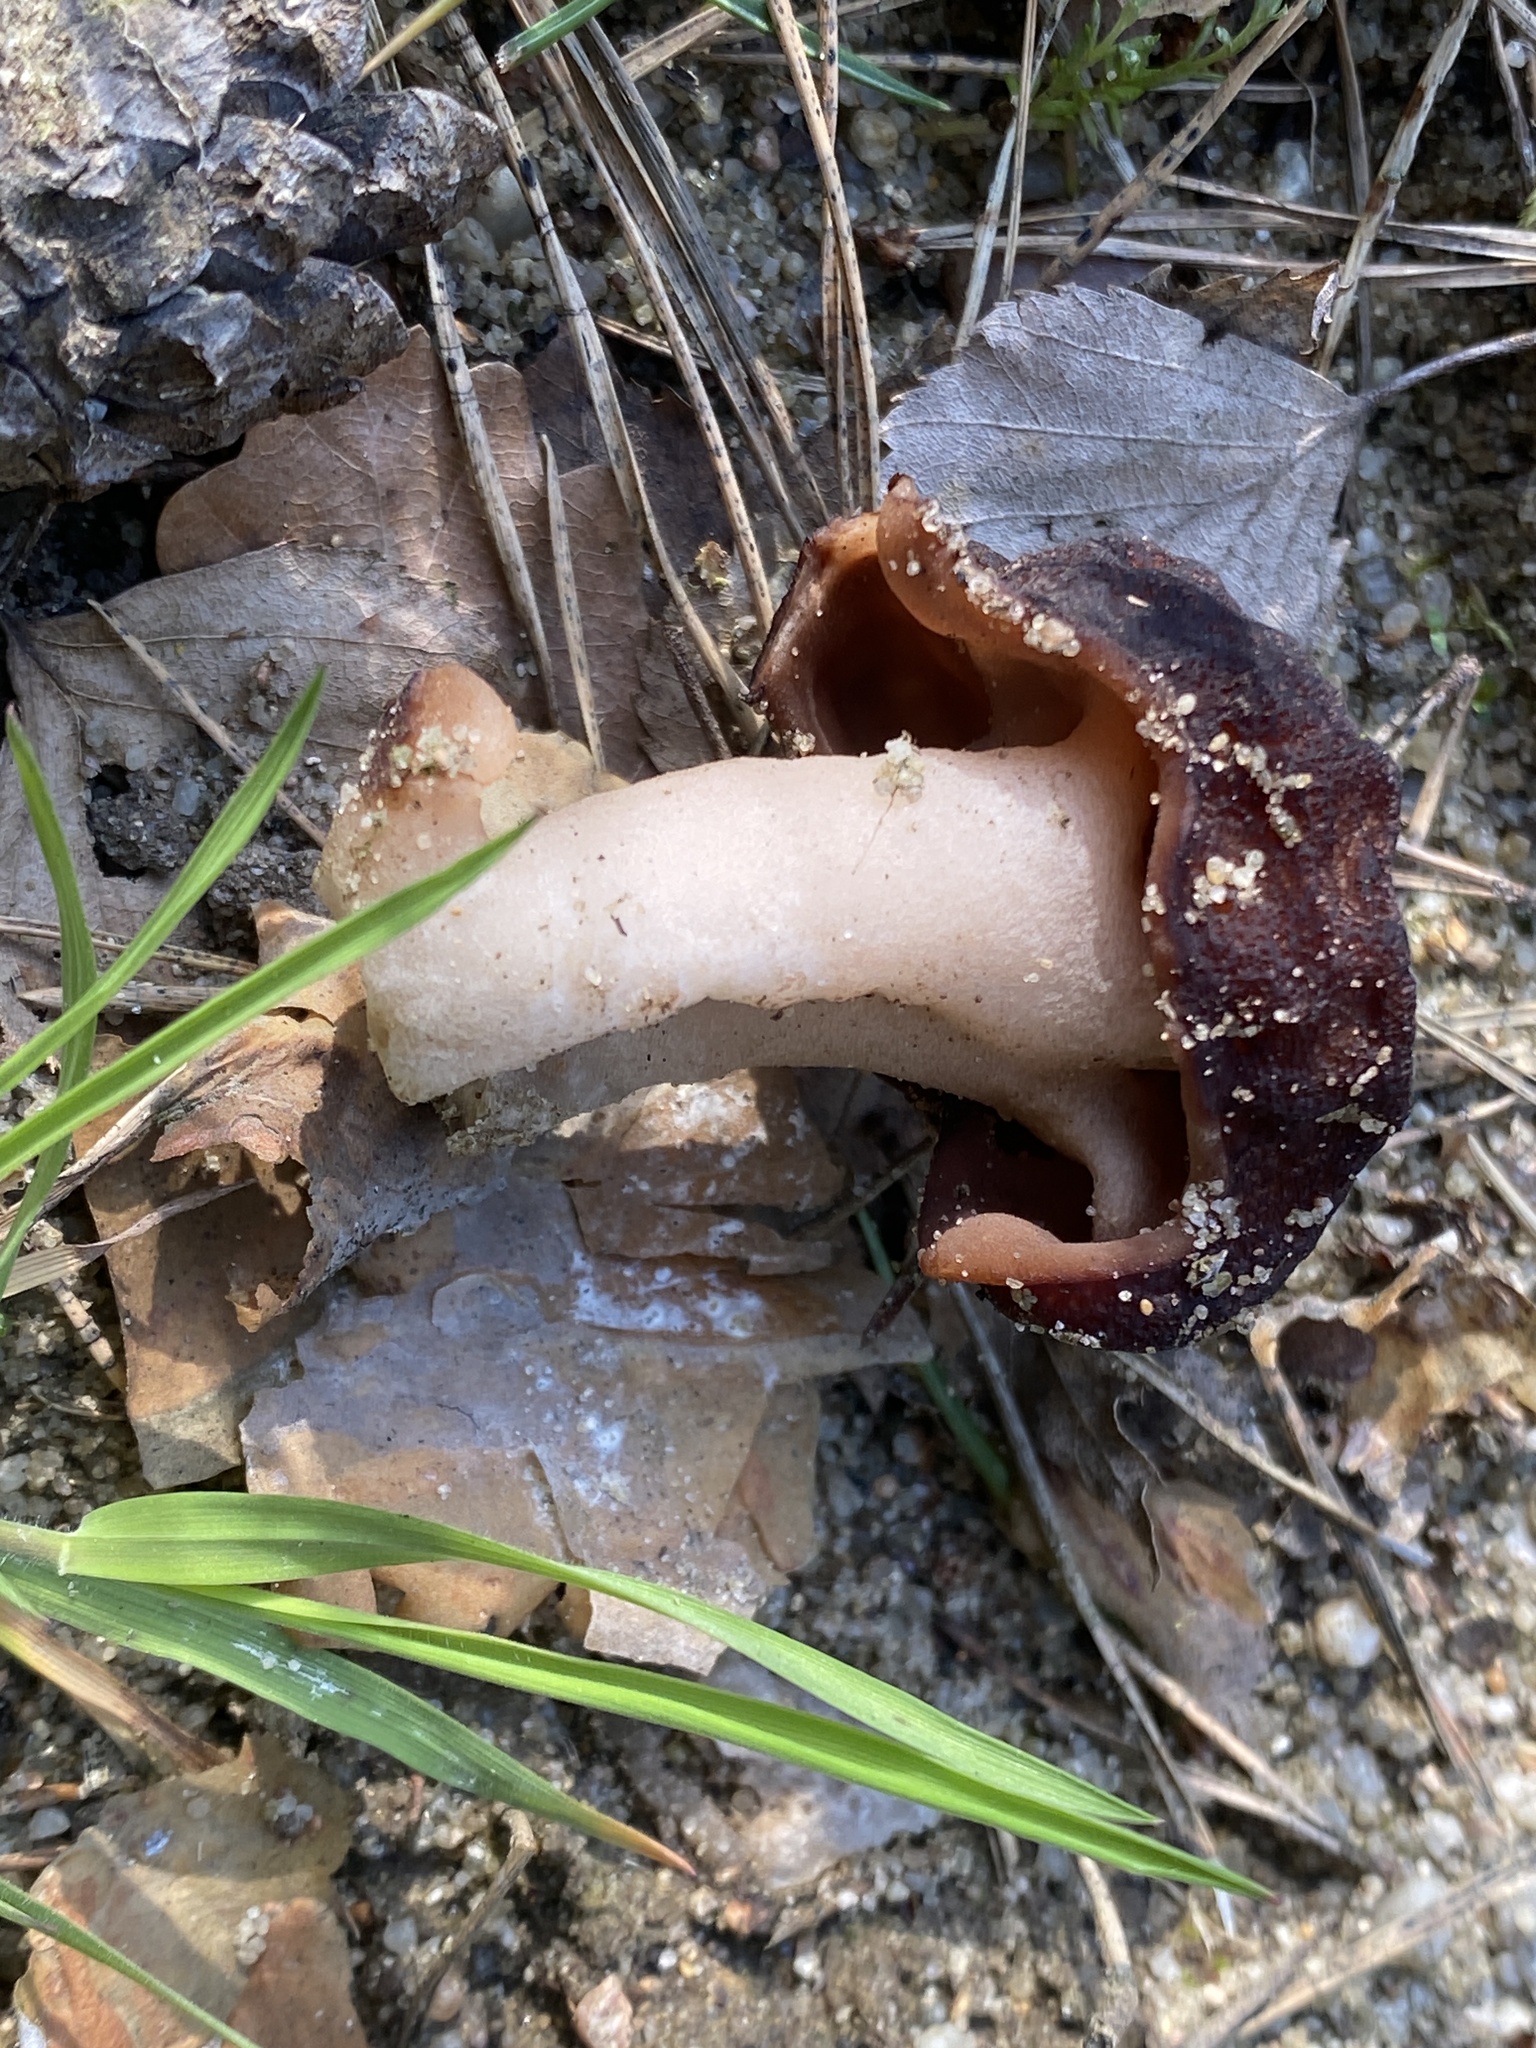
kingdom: Fungi
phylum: Ascomycota
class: Pezizomycetes
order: Pezizales
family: Discinaceae
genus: Gyromitra
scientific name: Gyromitra esculenta
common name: False morel
